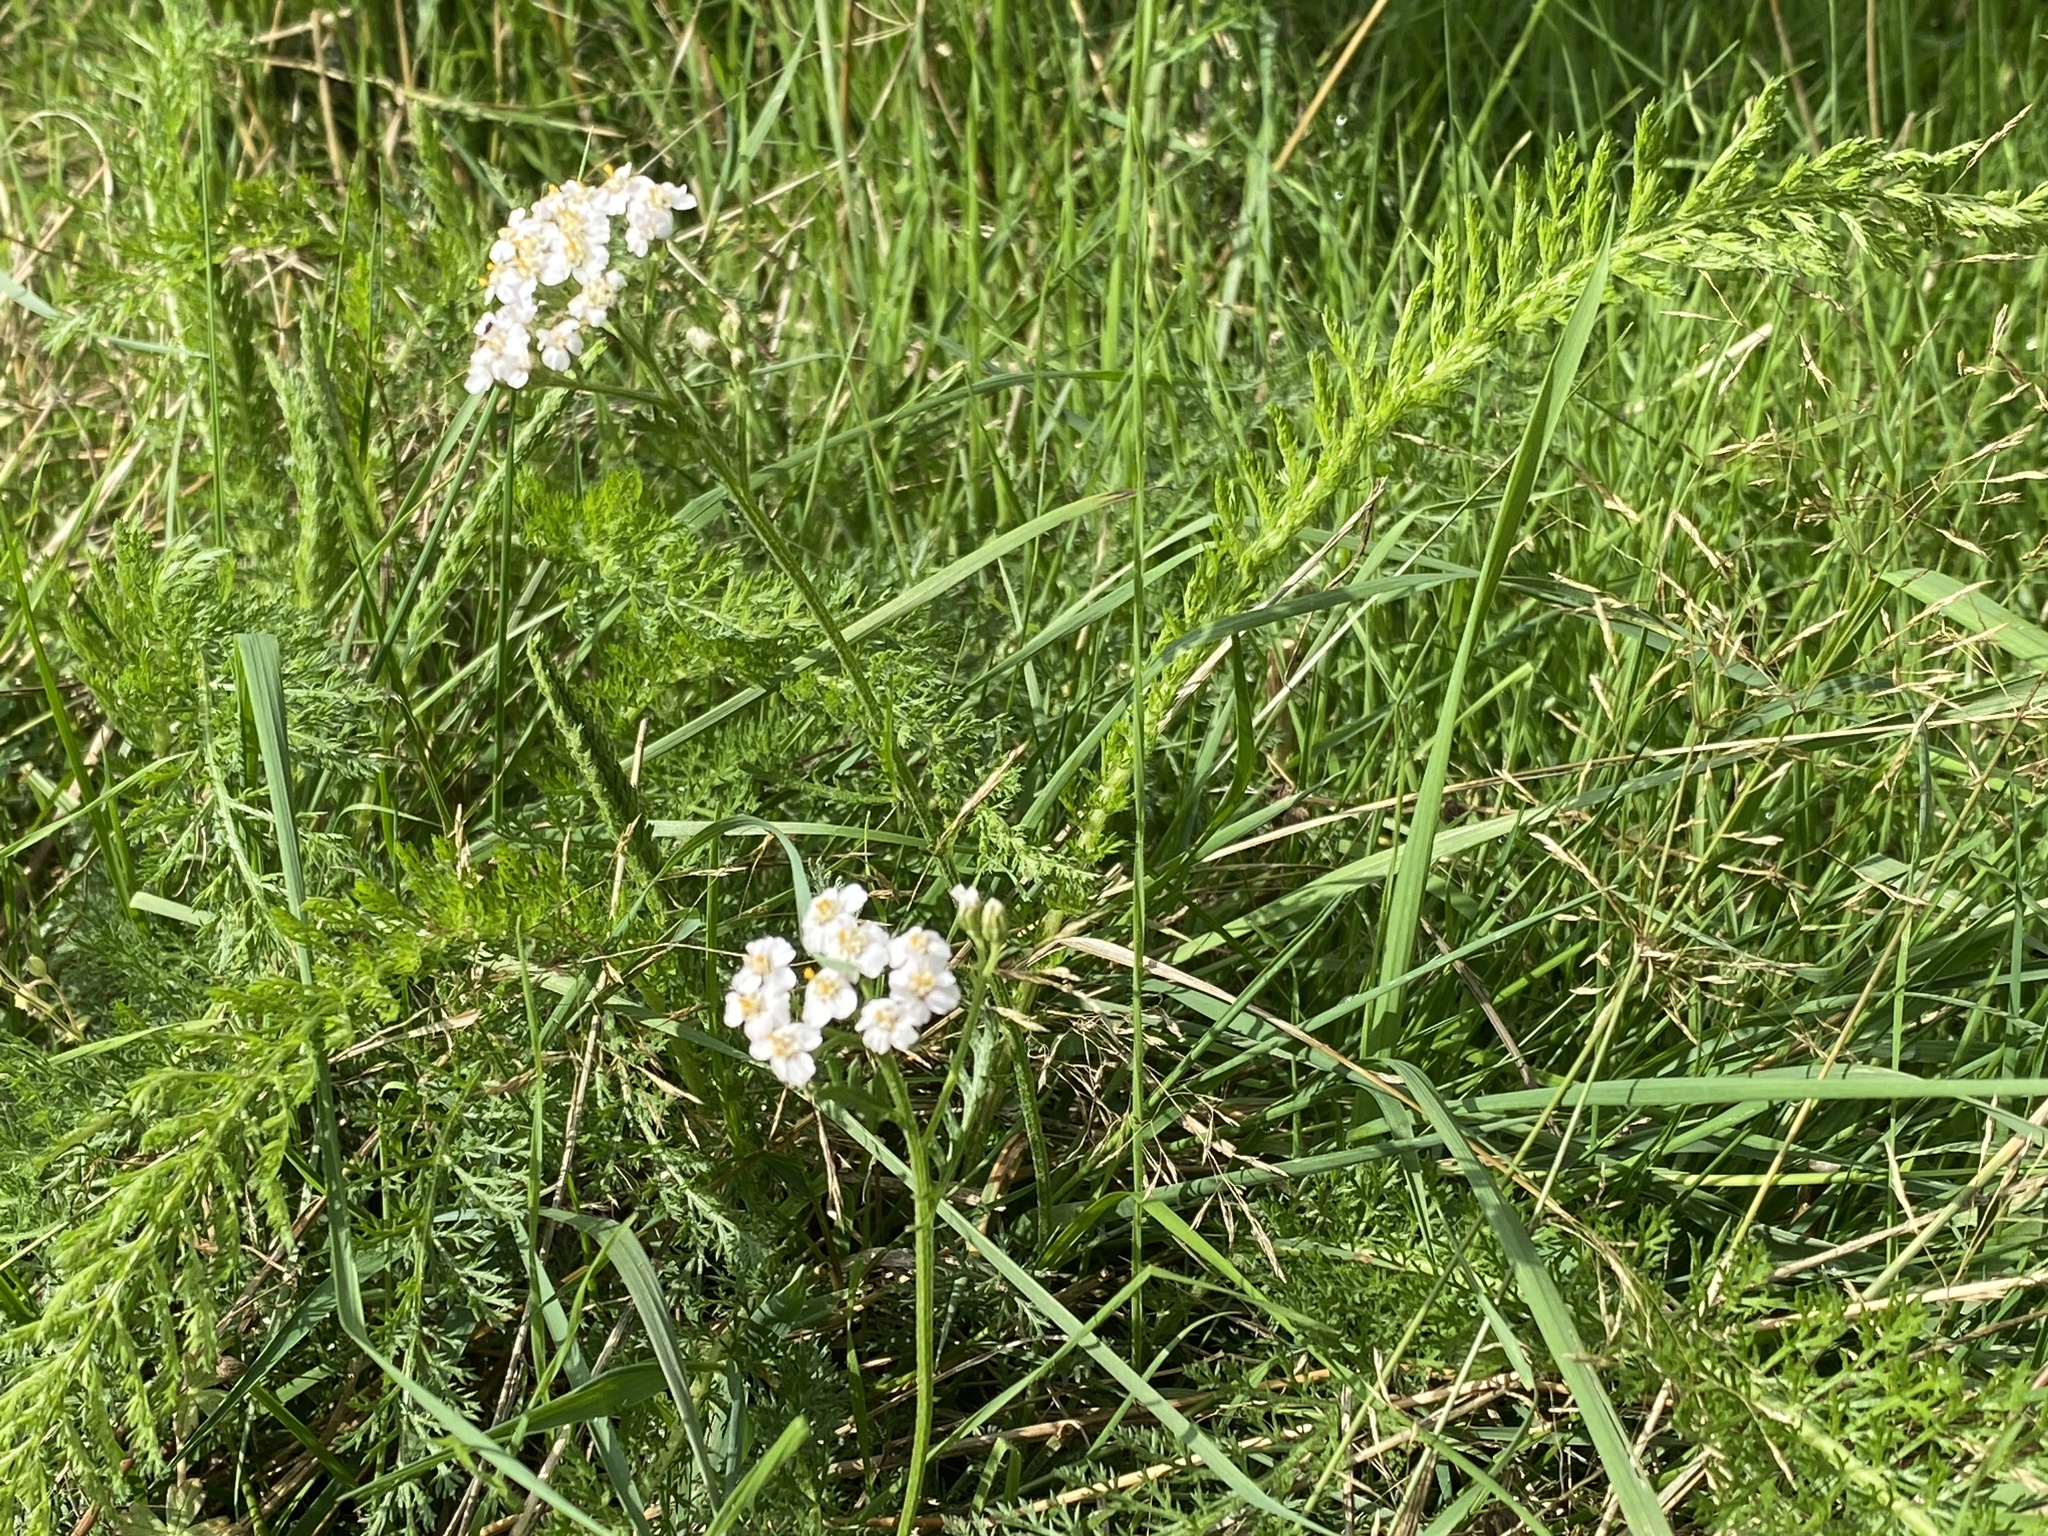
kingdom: Plantae
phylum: Tracheophyta
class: Magnoliopsida
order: Asterales
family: Asteraceae
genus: Achillea
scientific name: Achillea millefolium
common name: Yarrow
